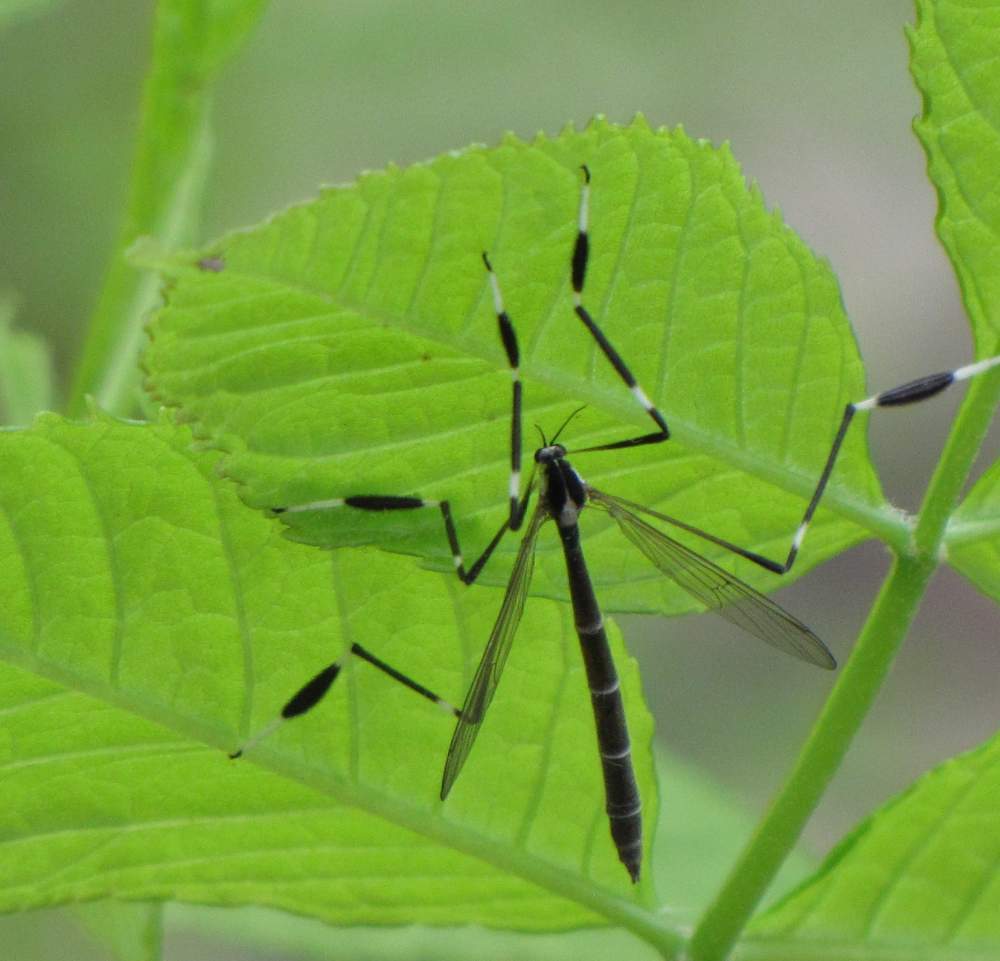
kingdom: Animalia
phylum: Arthropoda
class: Insecta
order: Diptera
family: Ptychopteridae
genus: Bittacomorpha
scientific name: Bittacomorpha clavipes
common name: Eastern phantom crane fly
